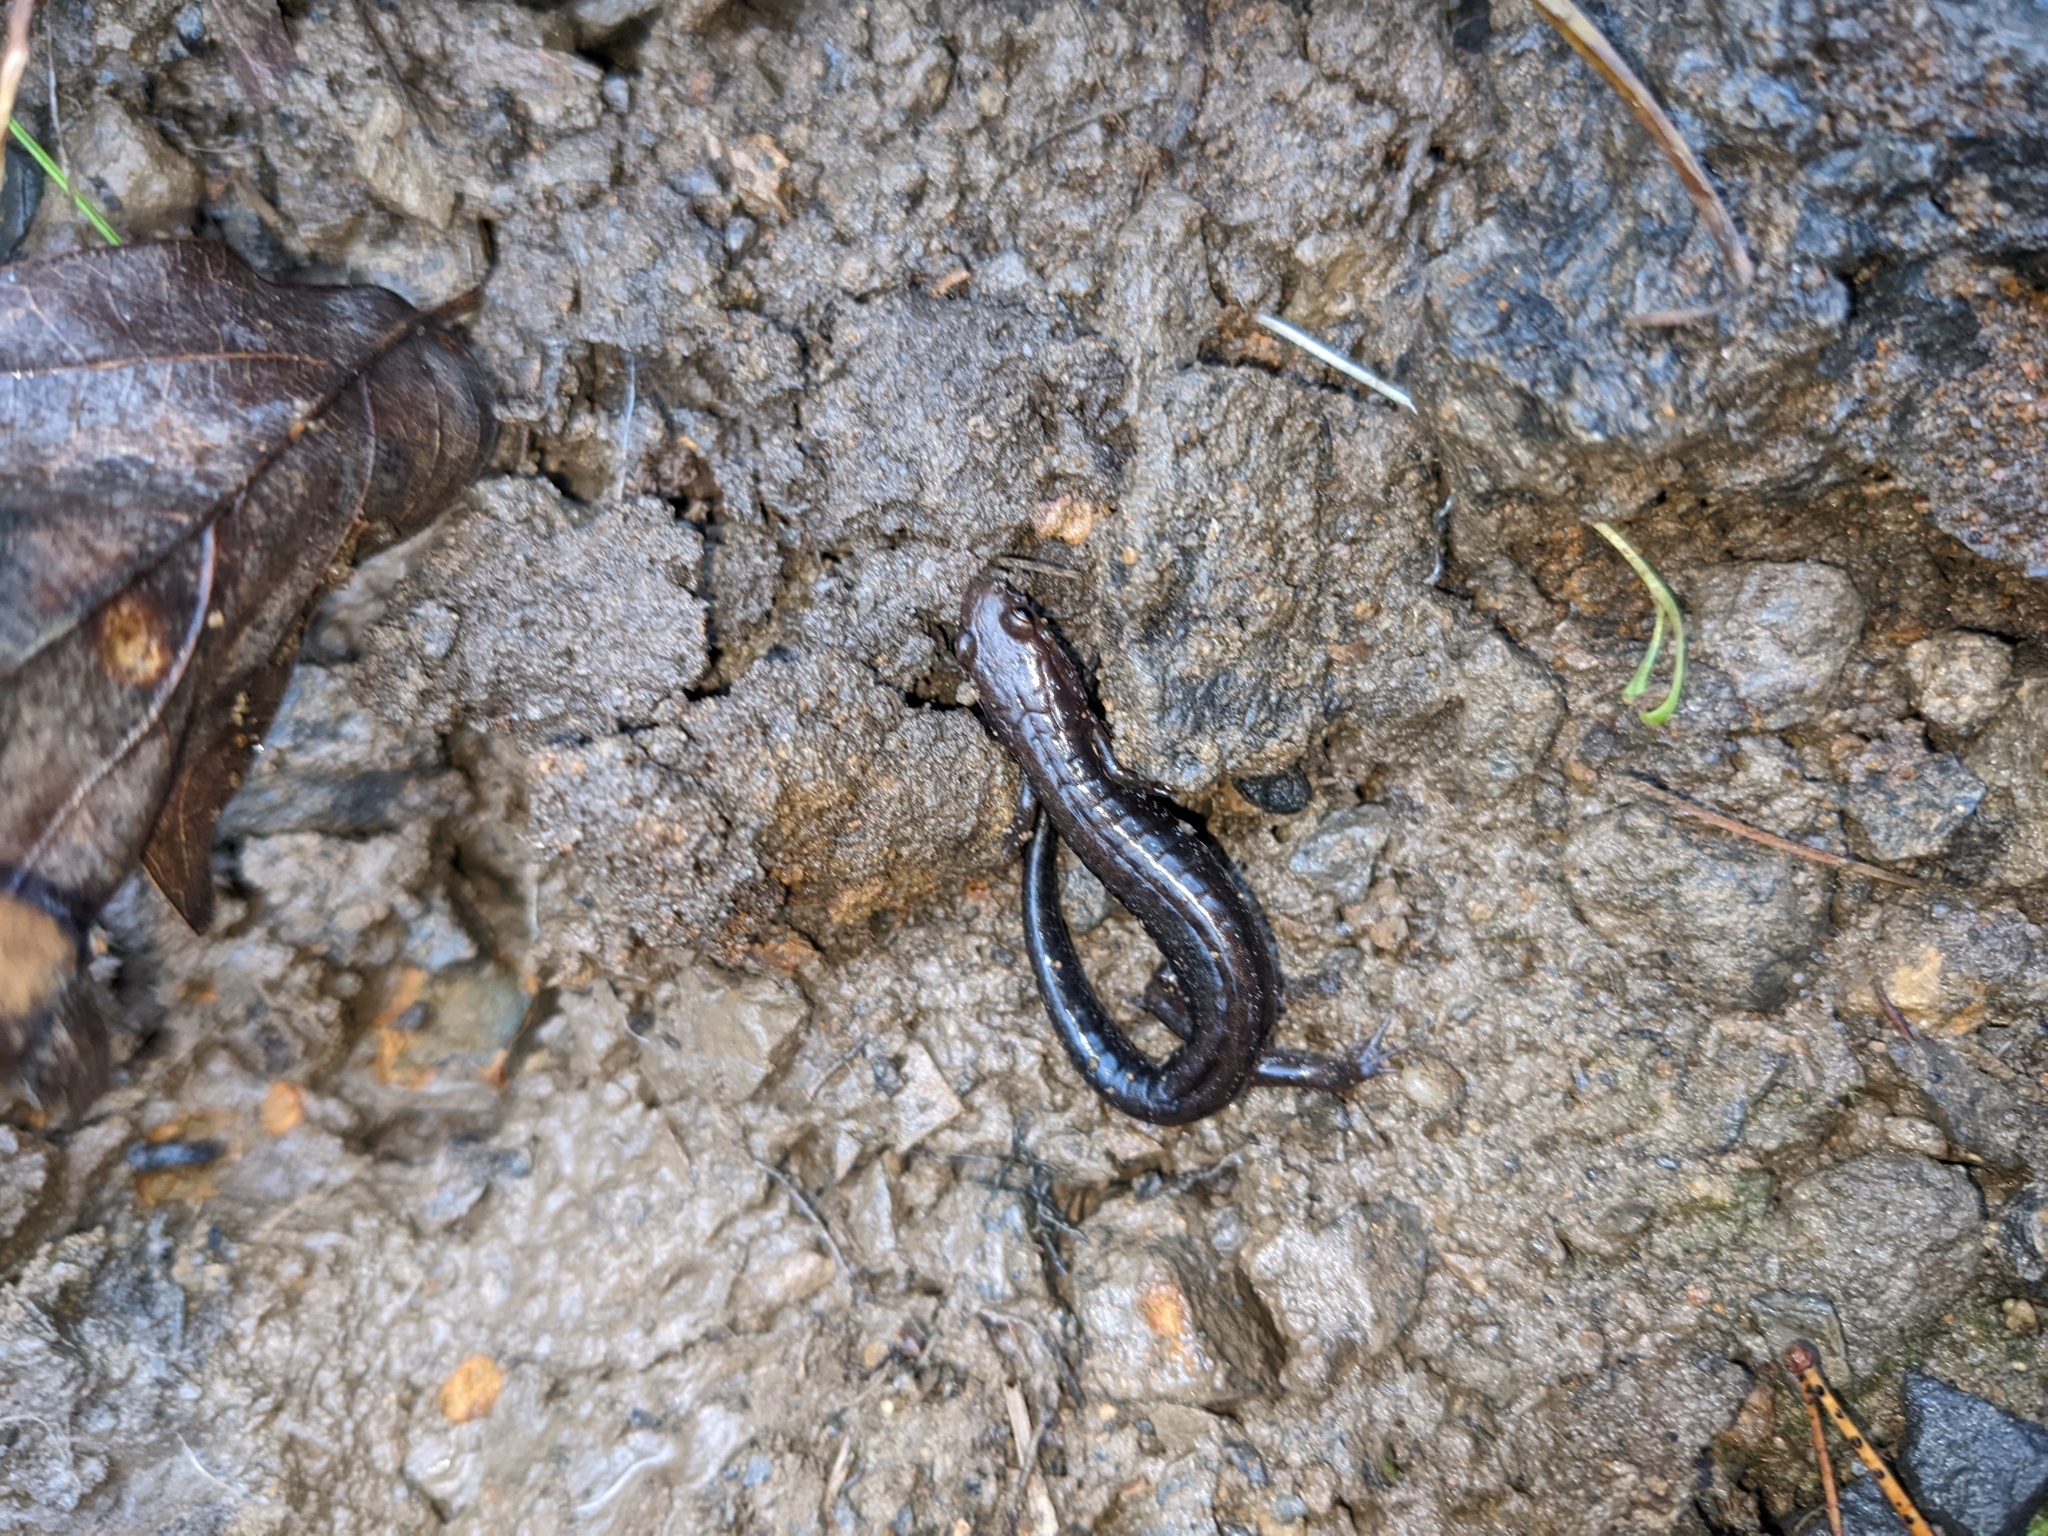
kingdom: Animalia
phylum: Chordata
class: Amphibia
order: Caudata
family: Plethodontidae
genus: Desmognathus
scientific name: Desmognathus ochrophaeus
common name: Allegheny mountain dusky salamander
